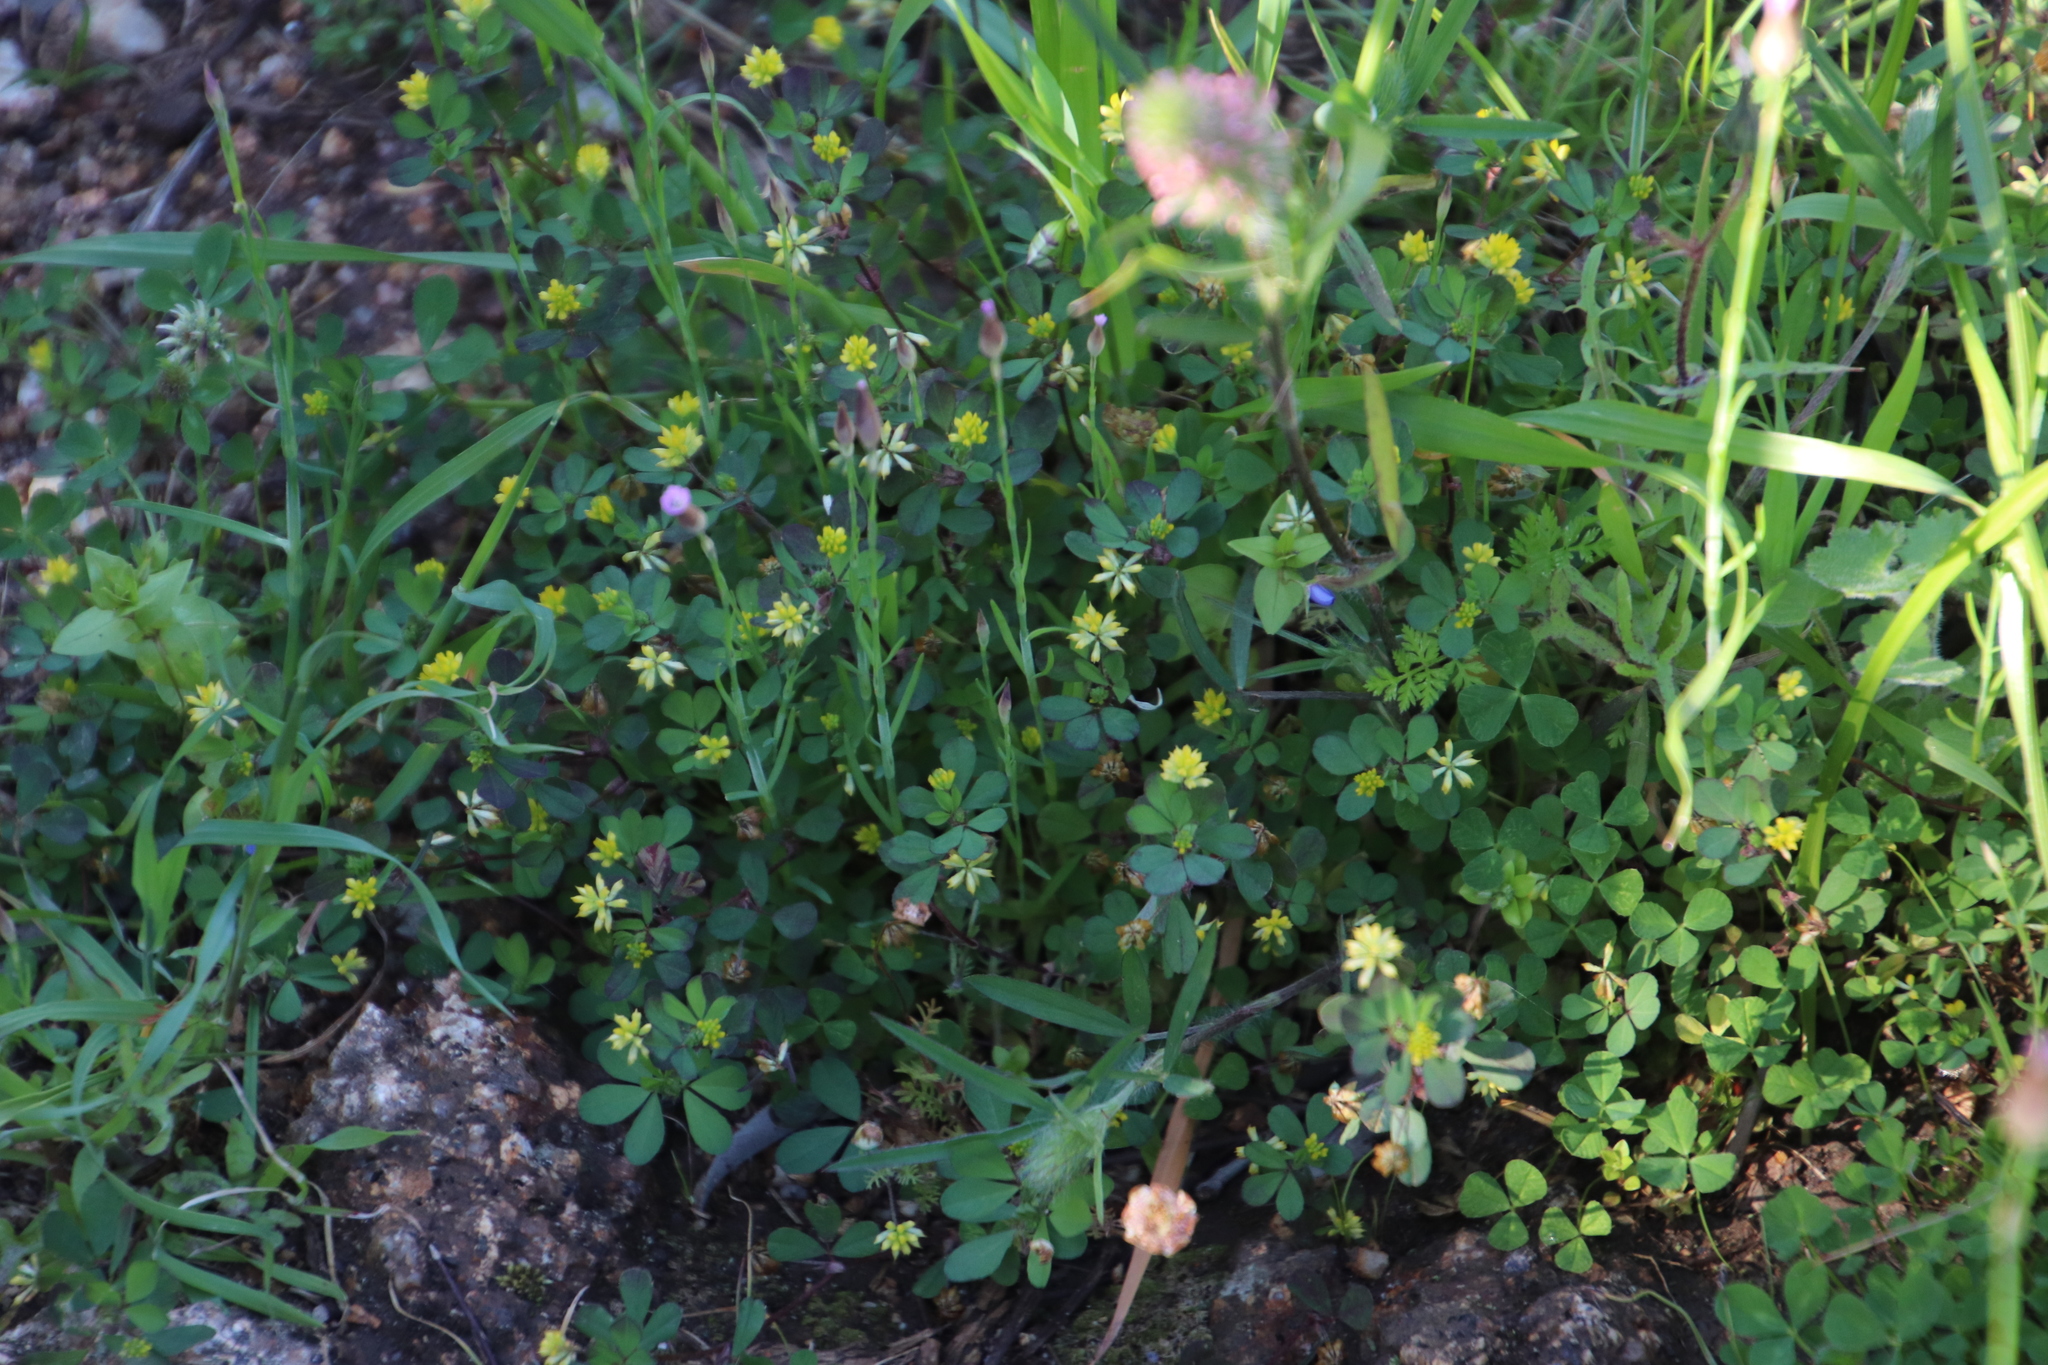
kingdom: Plantae
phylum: Tracheophyta
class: Magnoliopsida
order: Fabales
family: Fabaceae
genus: Trifolium
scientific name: Trifolium dubium
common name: Suckling clover
